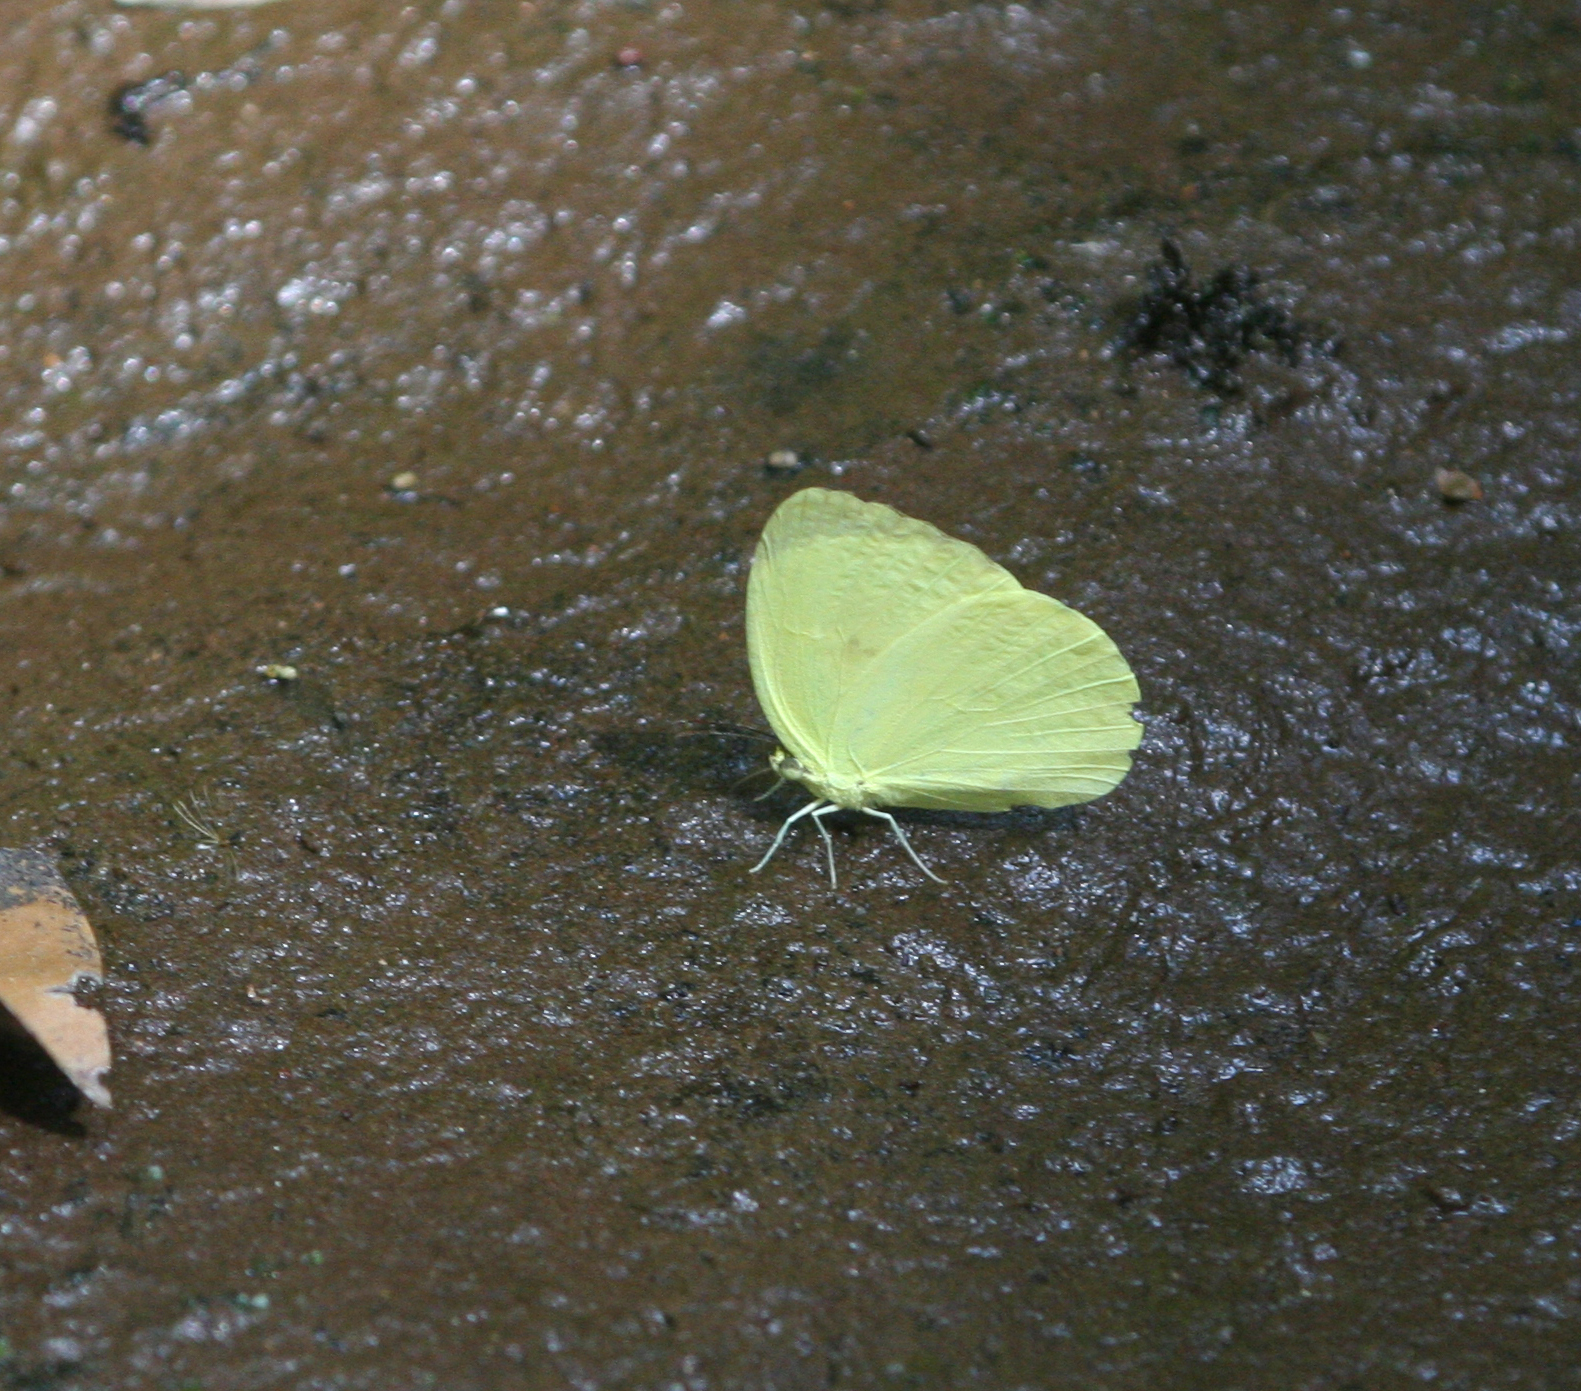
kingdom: Animalia
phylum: Arthropoda
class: Insecta
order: Lepidoptera
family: Pieridae
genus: Gandaca
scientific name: Gandaca harina
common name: Tree yellow
